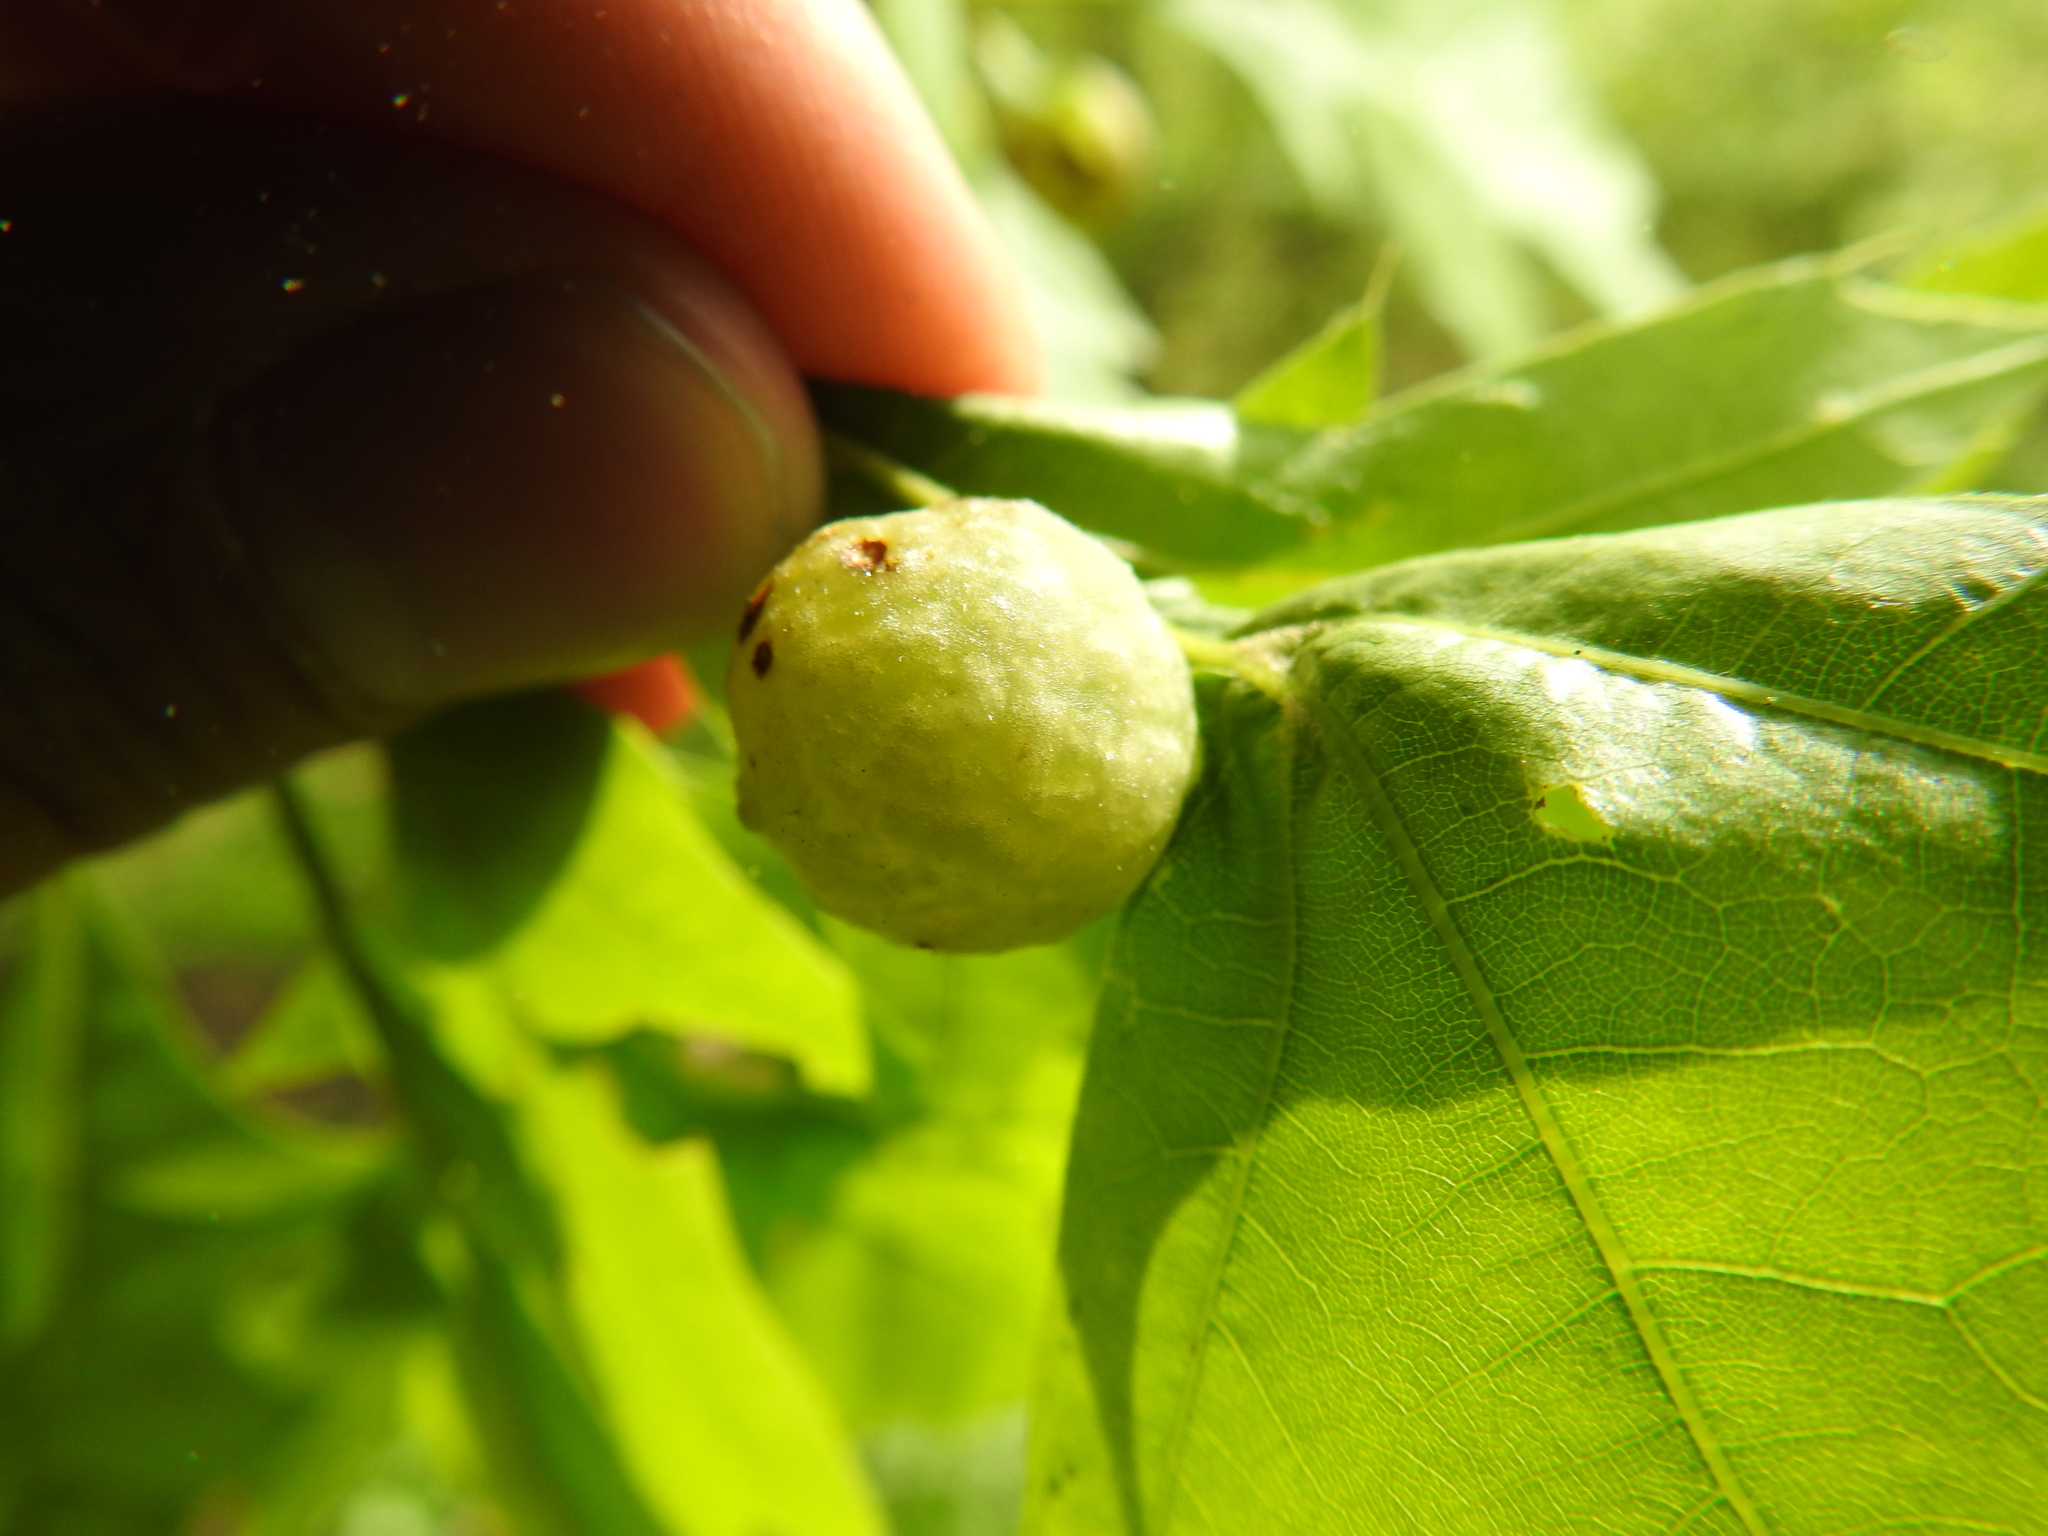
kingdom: Animalia
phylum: Arthropoda
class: Insecta
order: Hymenoptera
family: Cynipidae
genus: Dryocosmus
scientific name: Dryocosmus quercuspalustris
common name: Succulent oak gall wasp
